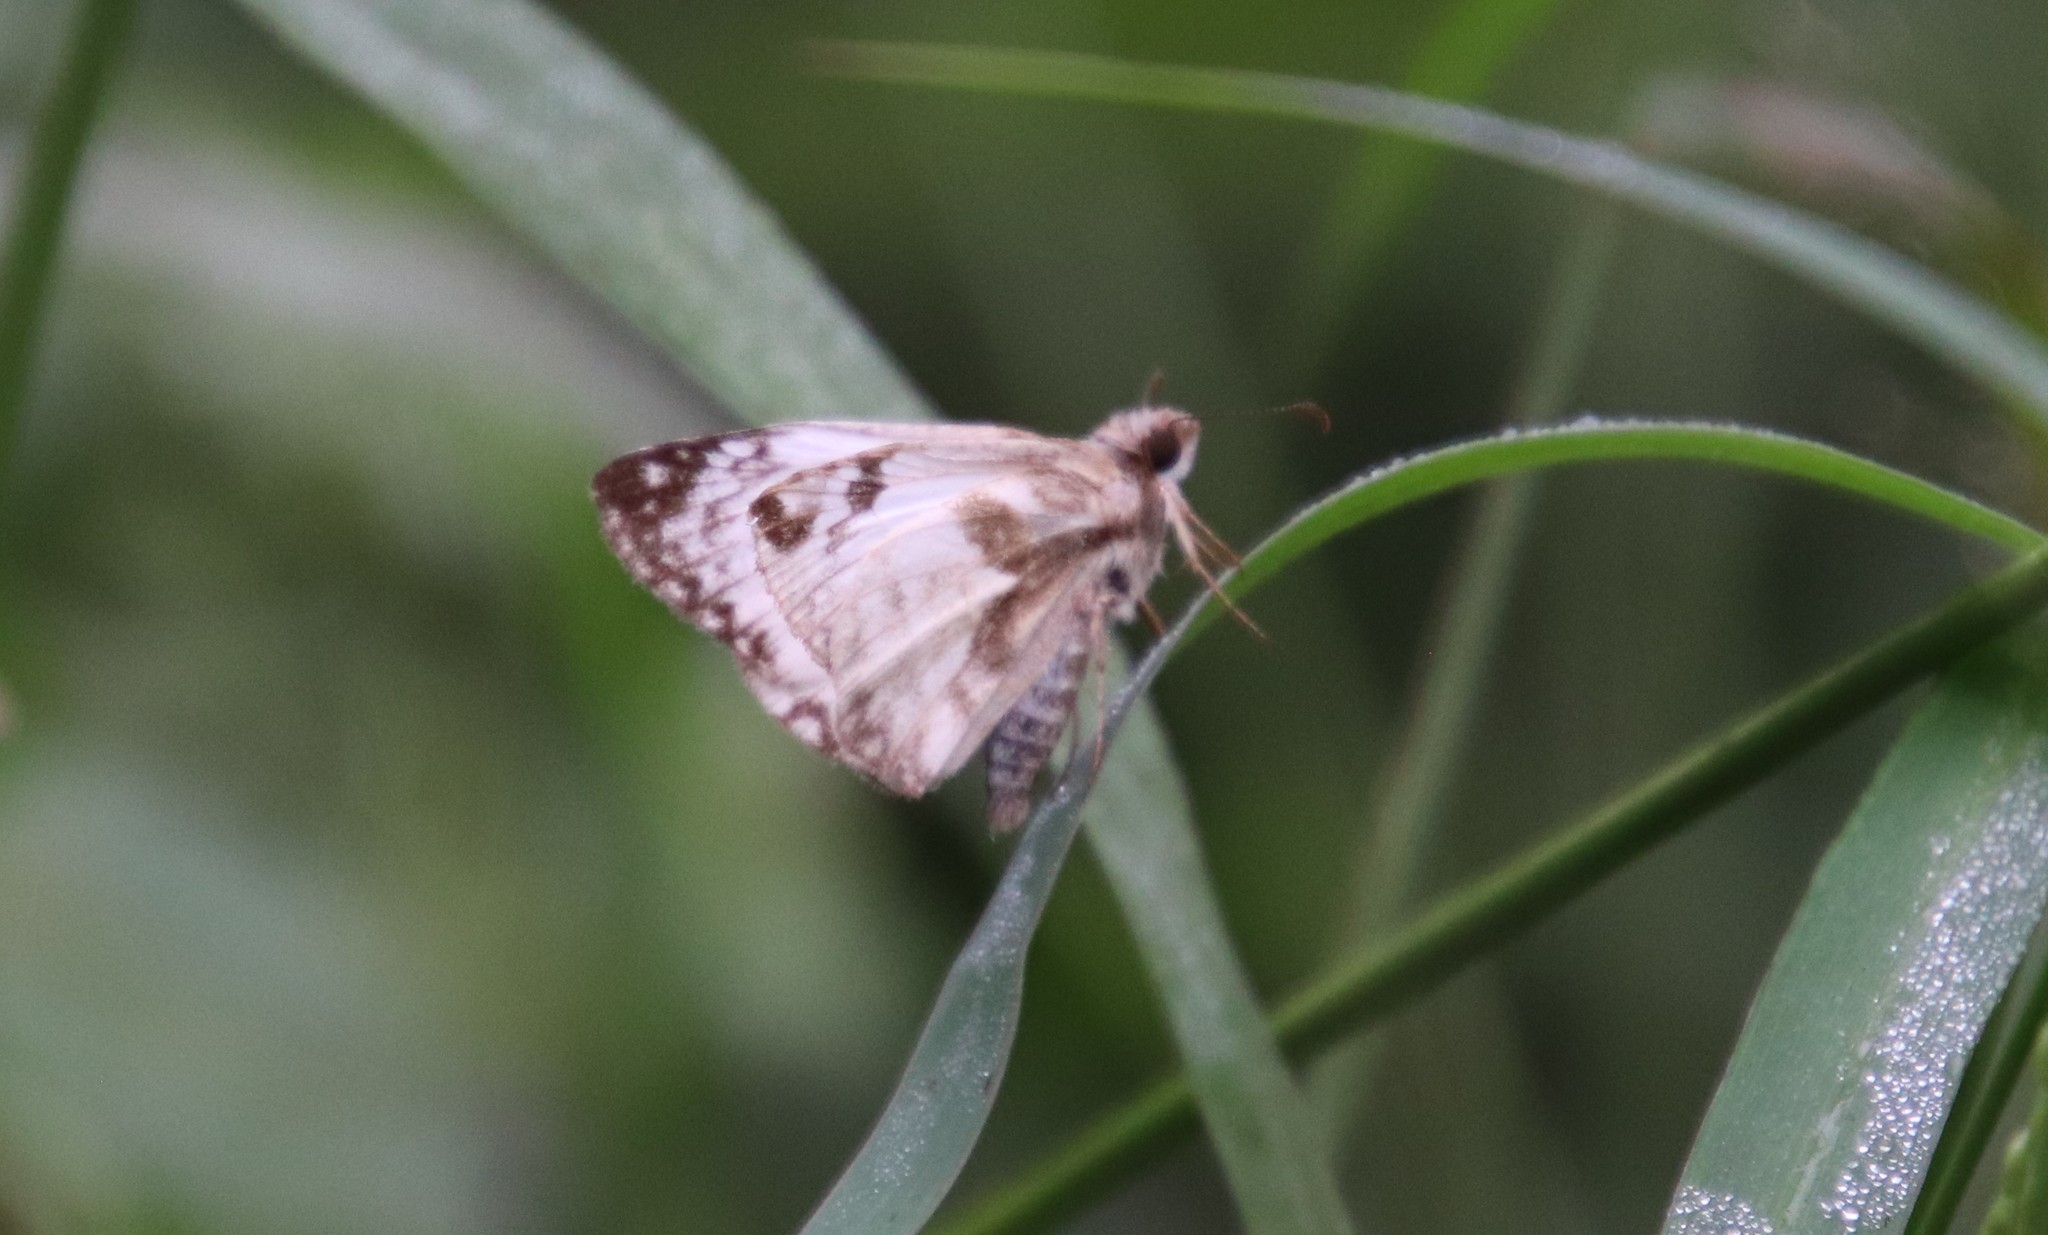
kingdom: Animalia
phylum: Arthropoda
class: Insecta
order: Lepidoptera
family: Hesperiidae
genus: Heliopetes
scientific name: Heliopetes laviana
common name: Laviana white-skipper
